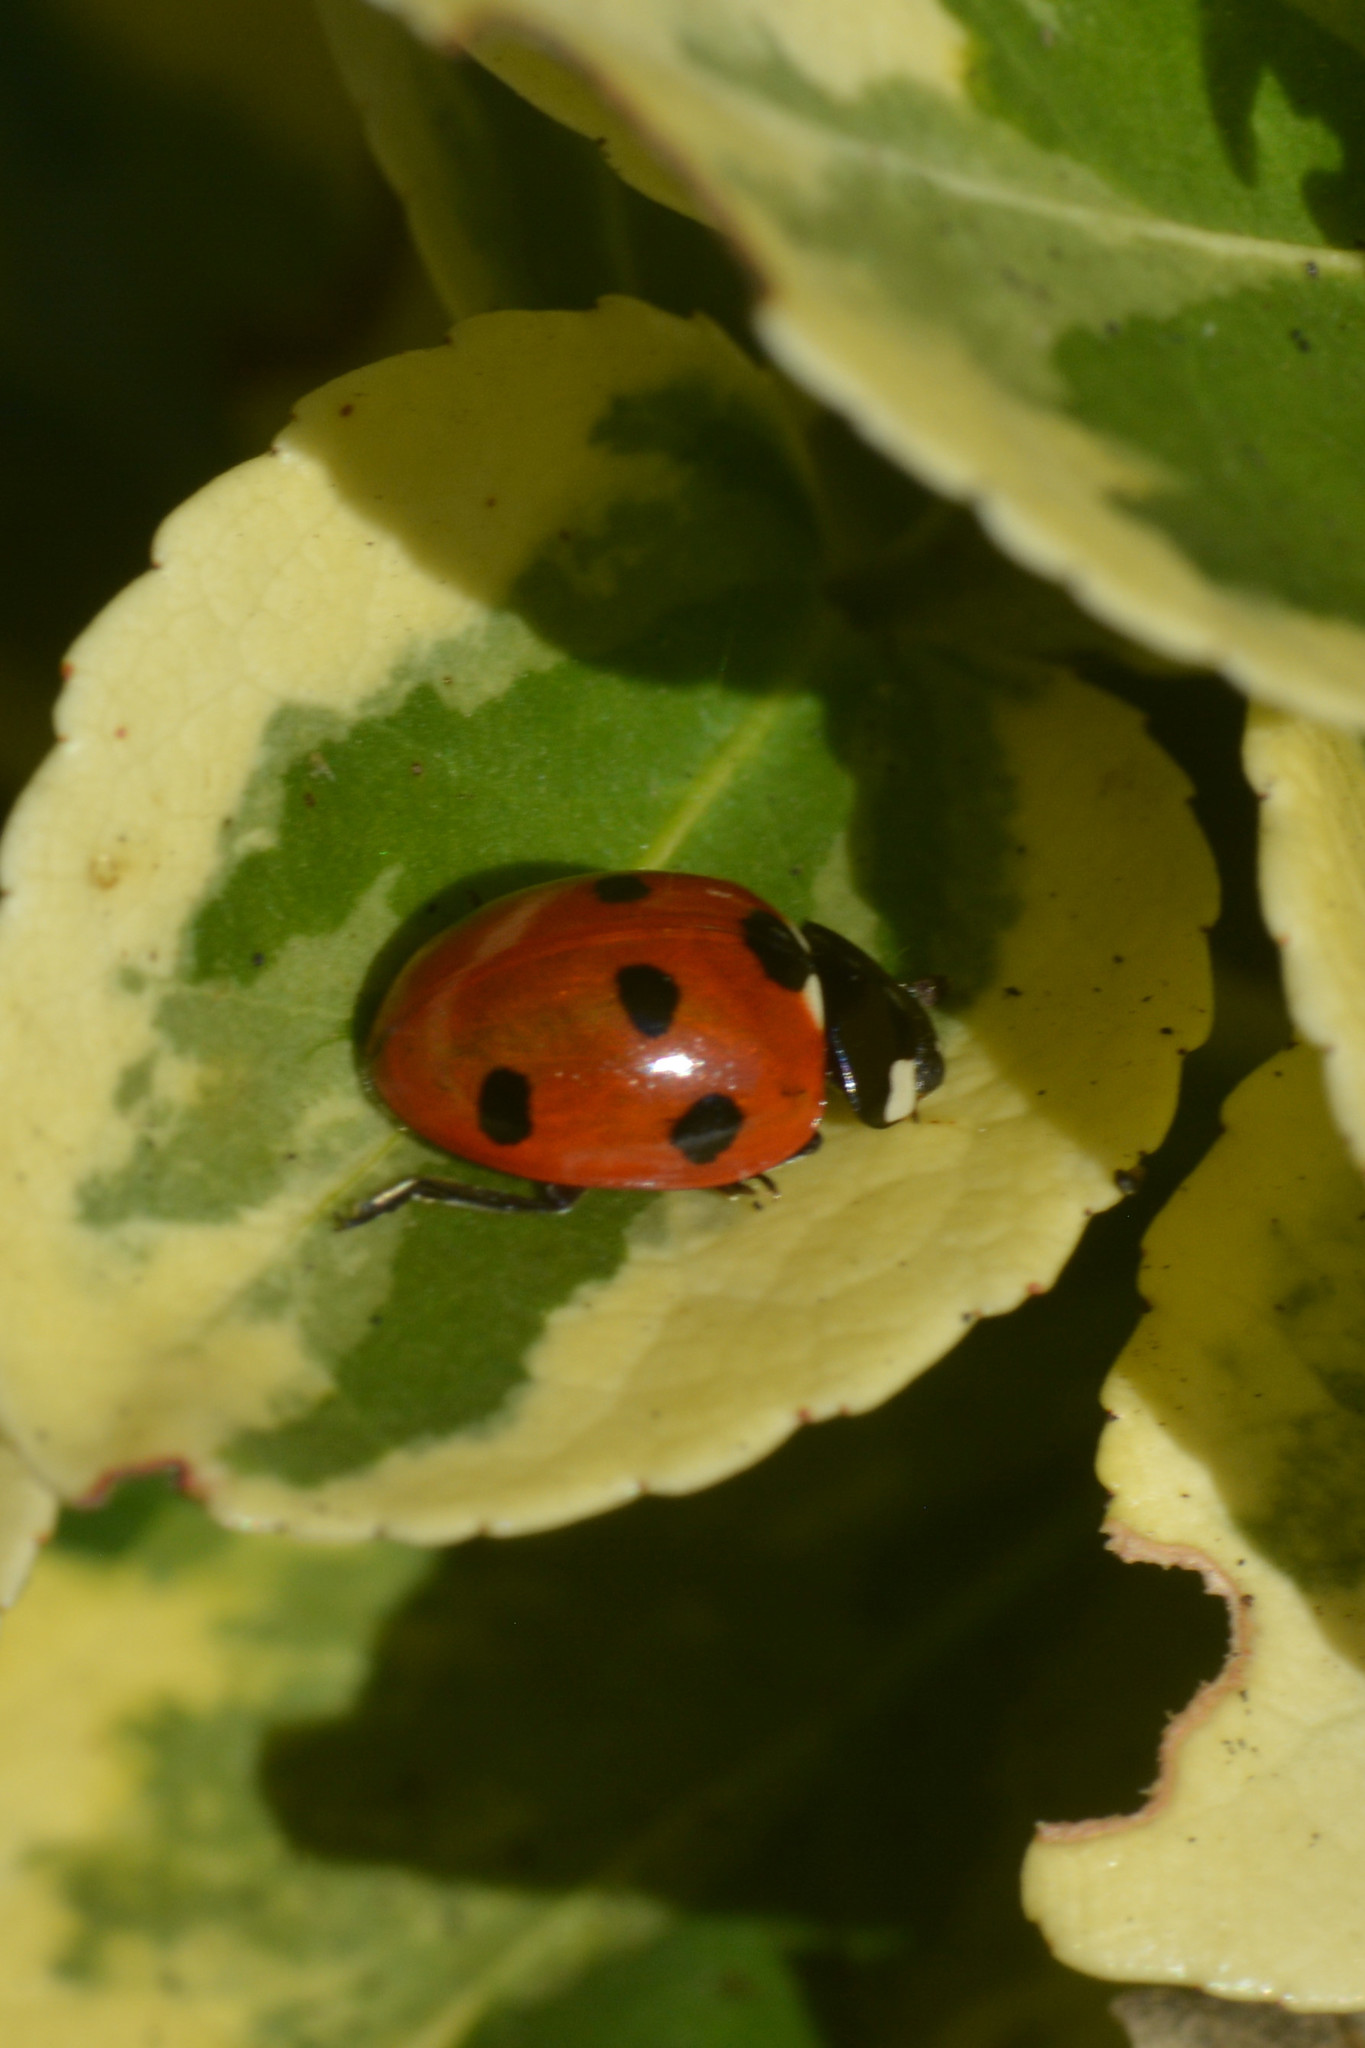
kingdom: Animalia
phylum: Arthropoda
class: Insecta
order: Coleoptera
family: Coccinellidae
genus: Coccinella
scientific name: Coccinella septempunctata
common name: Sevenspotted lady beetle
